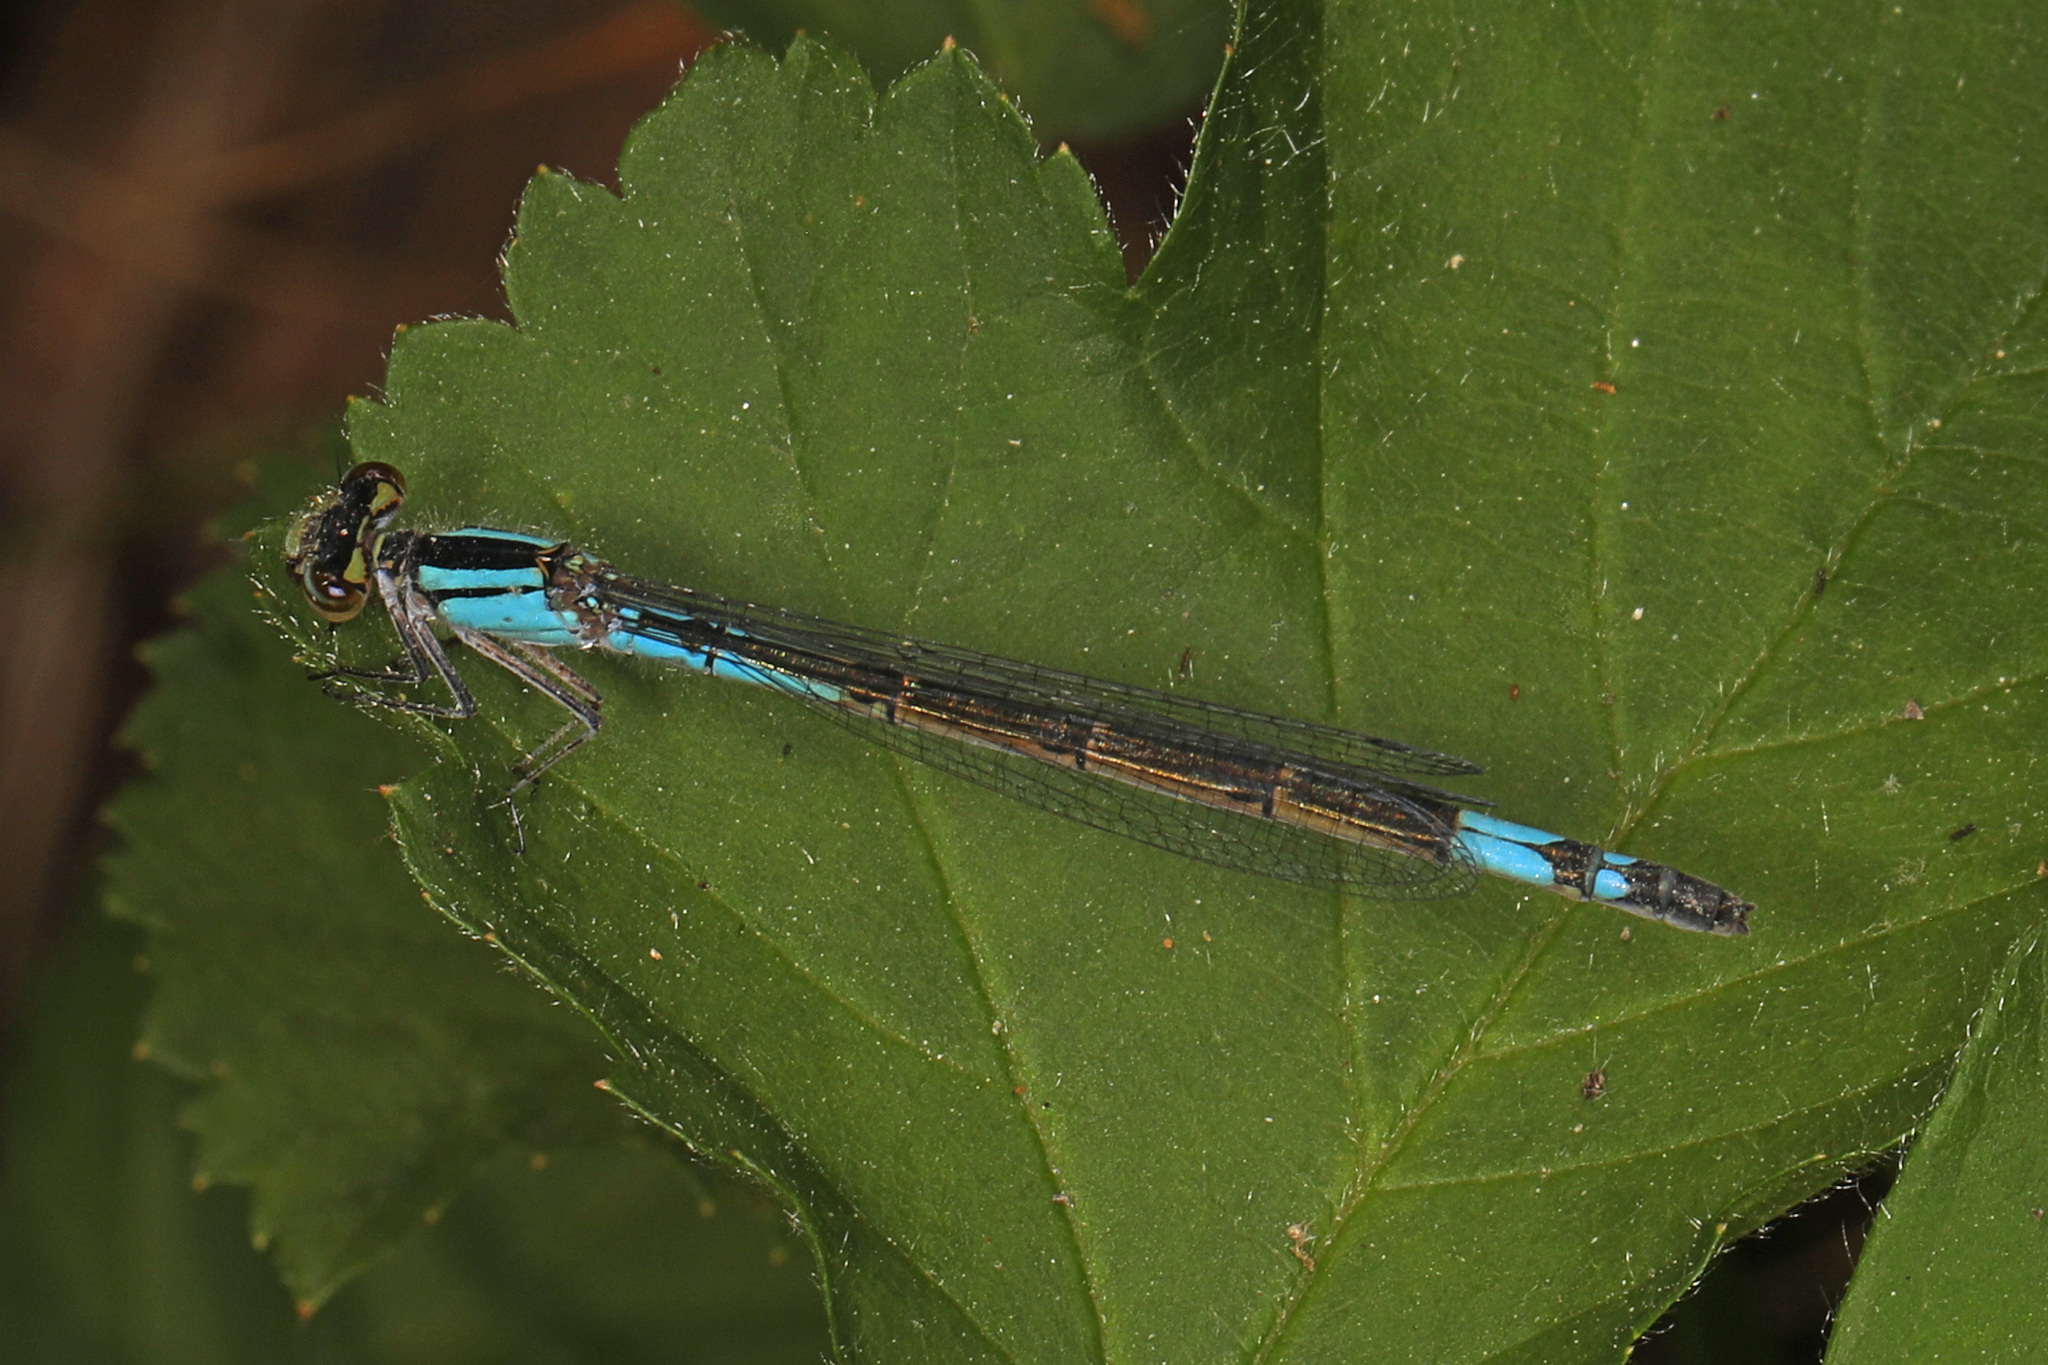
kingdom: Animalia
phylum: Arthropoda
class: Insecta
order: Odonata
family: Coenagrionidae
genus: Enallagma
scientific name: Enallagma aspersum
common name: Azure bluet
